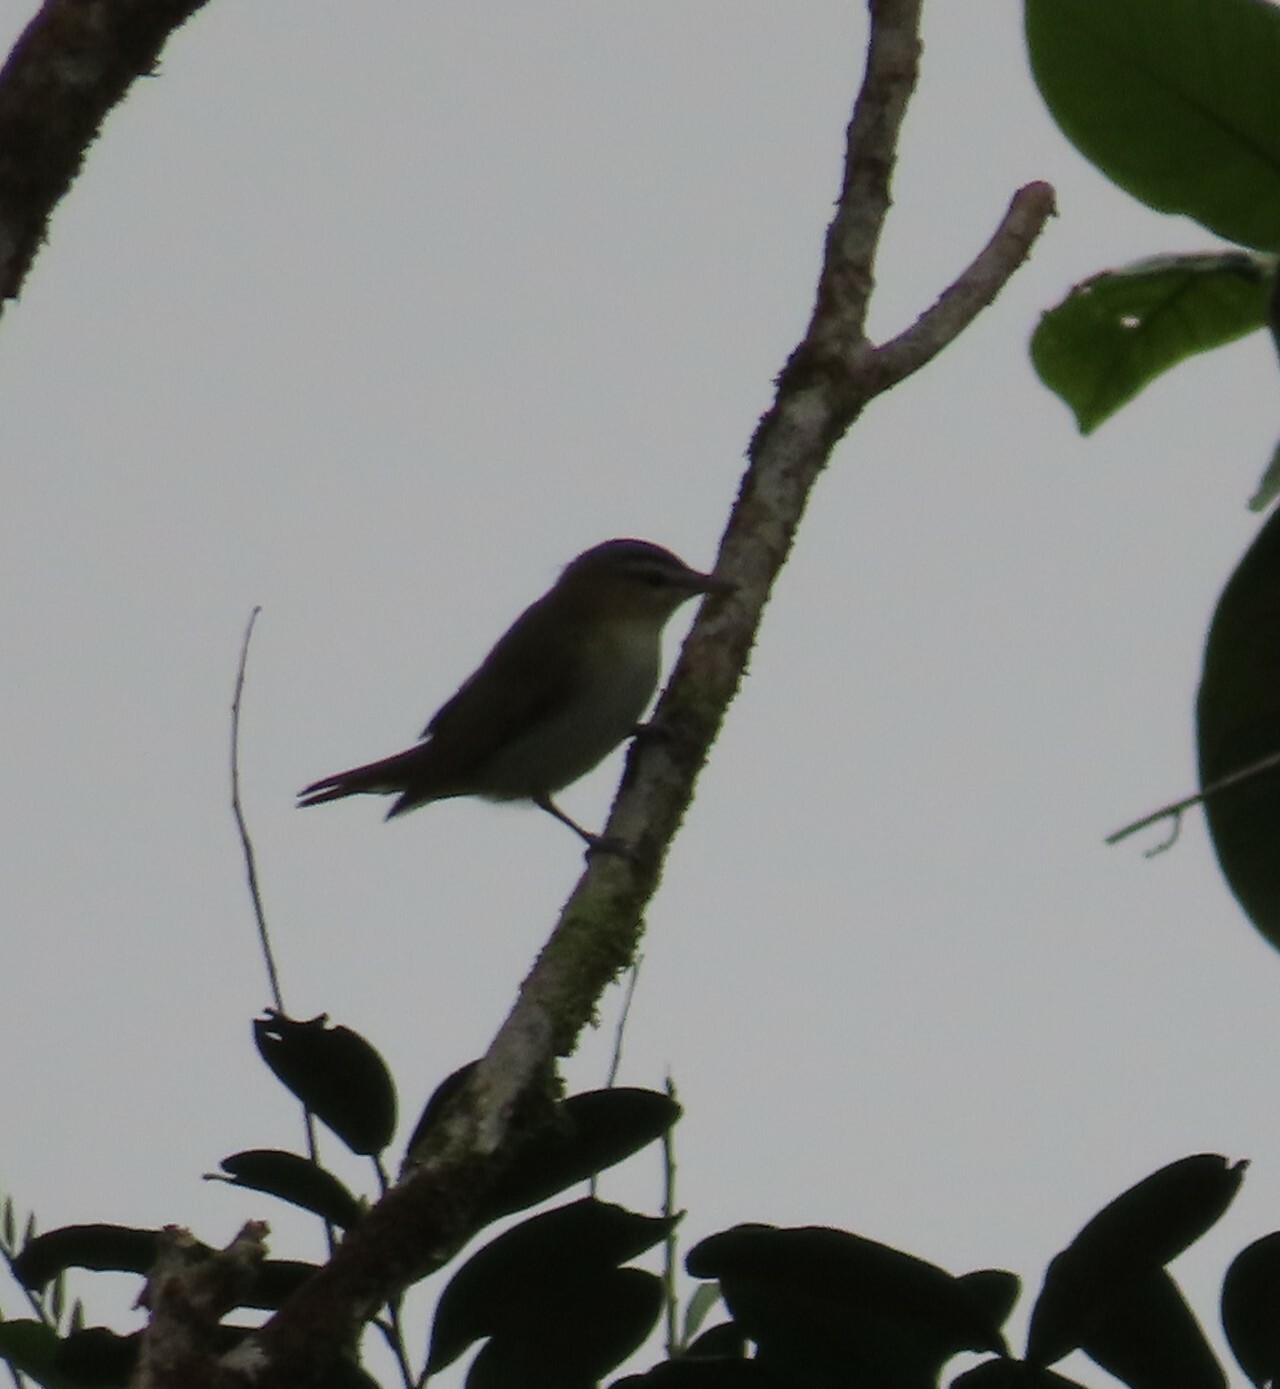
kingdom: Animalia
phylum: Chordata
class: Aves
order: Passeriformes
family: Vireonidae
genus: Vireo
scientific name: Vireo olivaceus
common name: Red-eyed vireo
